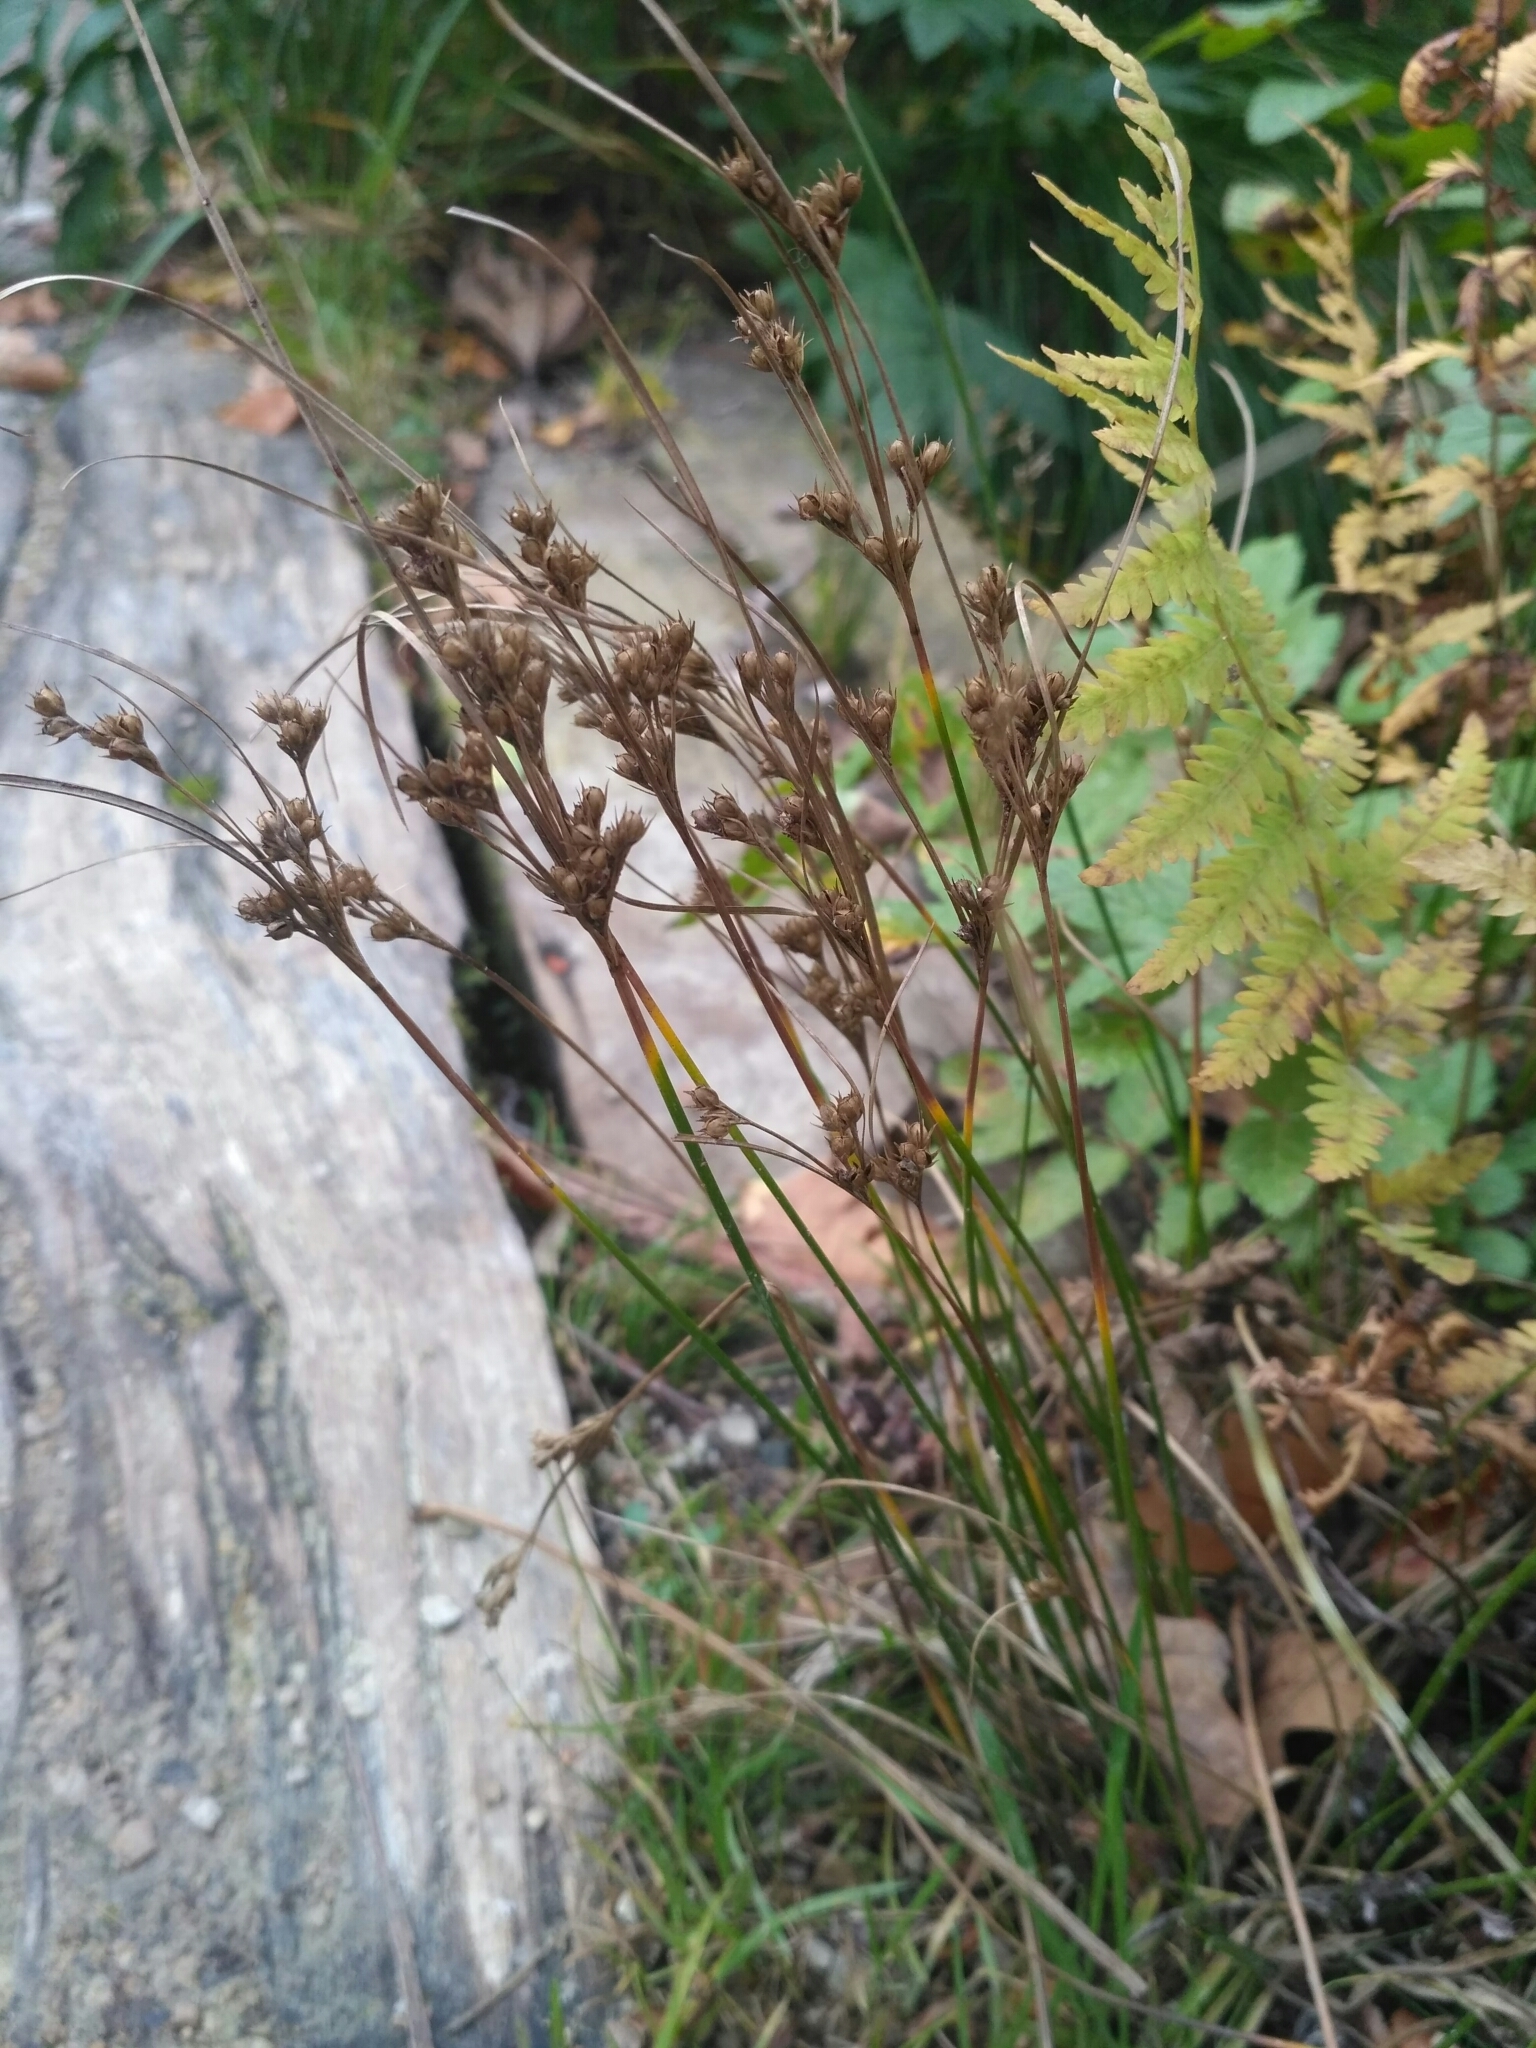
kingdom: Plantae
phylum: Tracheophyta
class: Liliopsida
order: Poales
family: Juncaceae
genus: Juncus
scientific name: Juncus tenuis
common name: Slender rush
